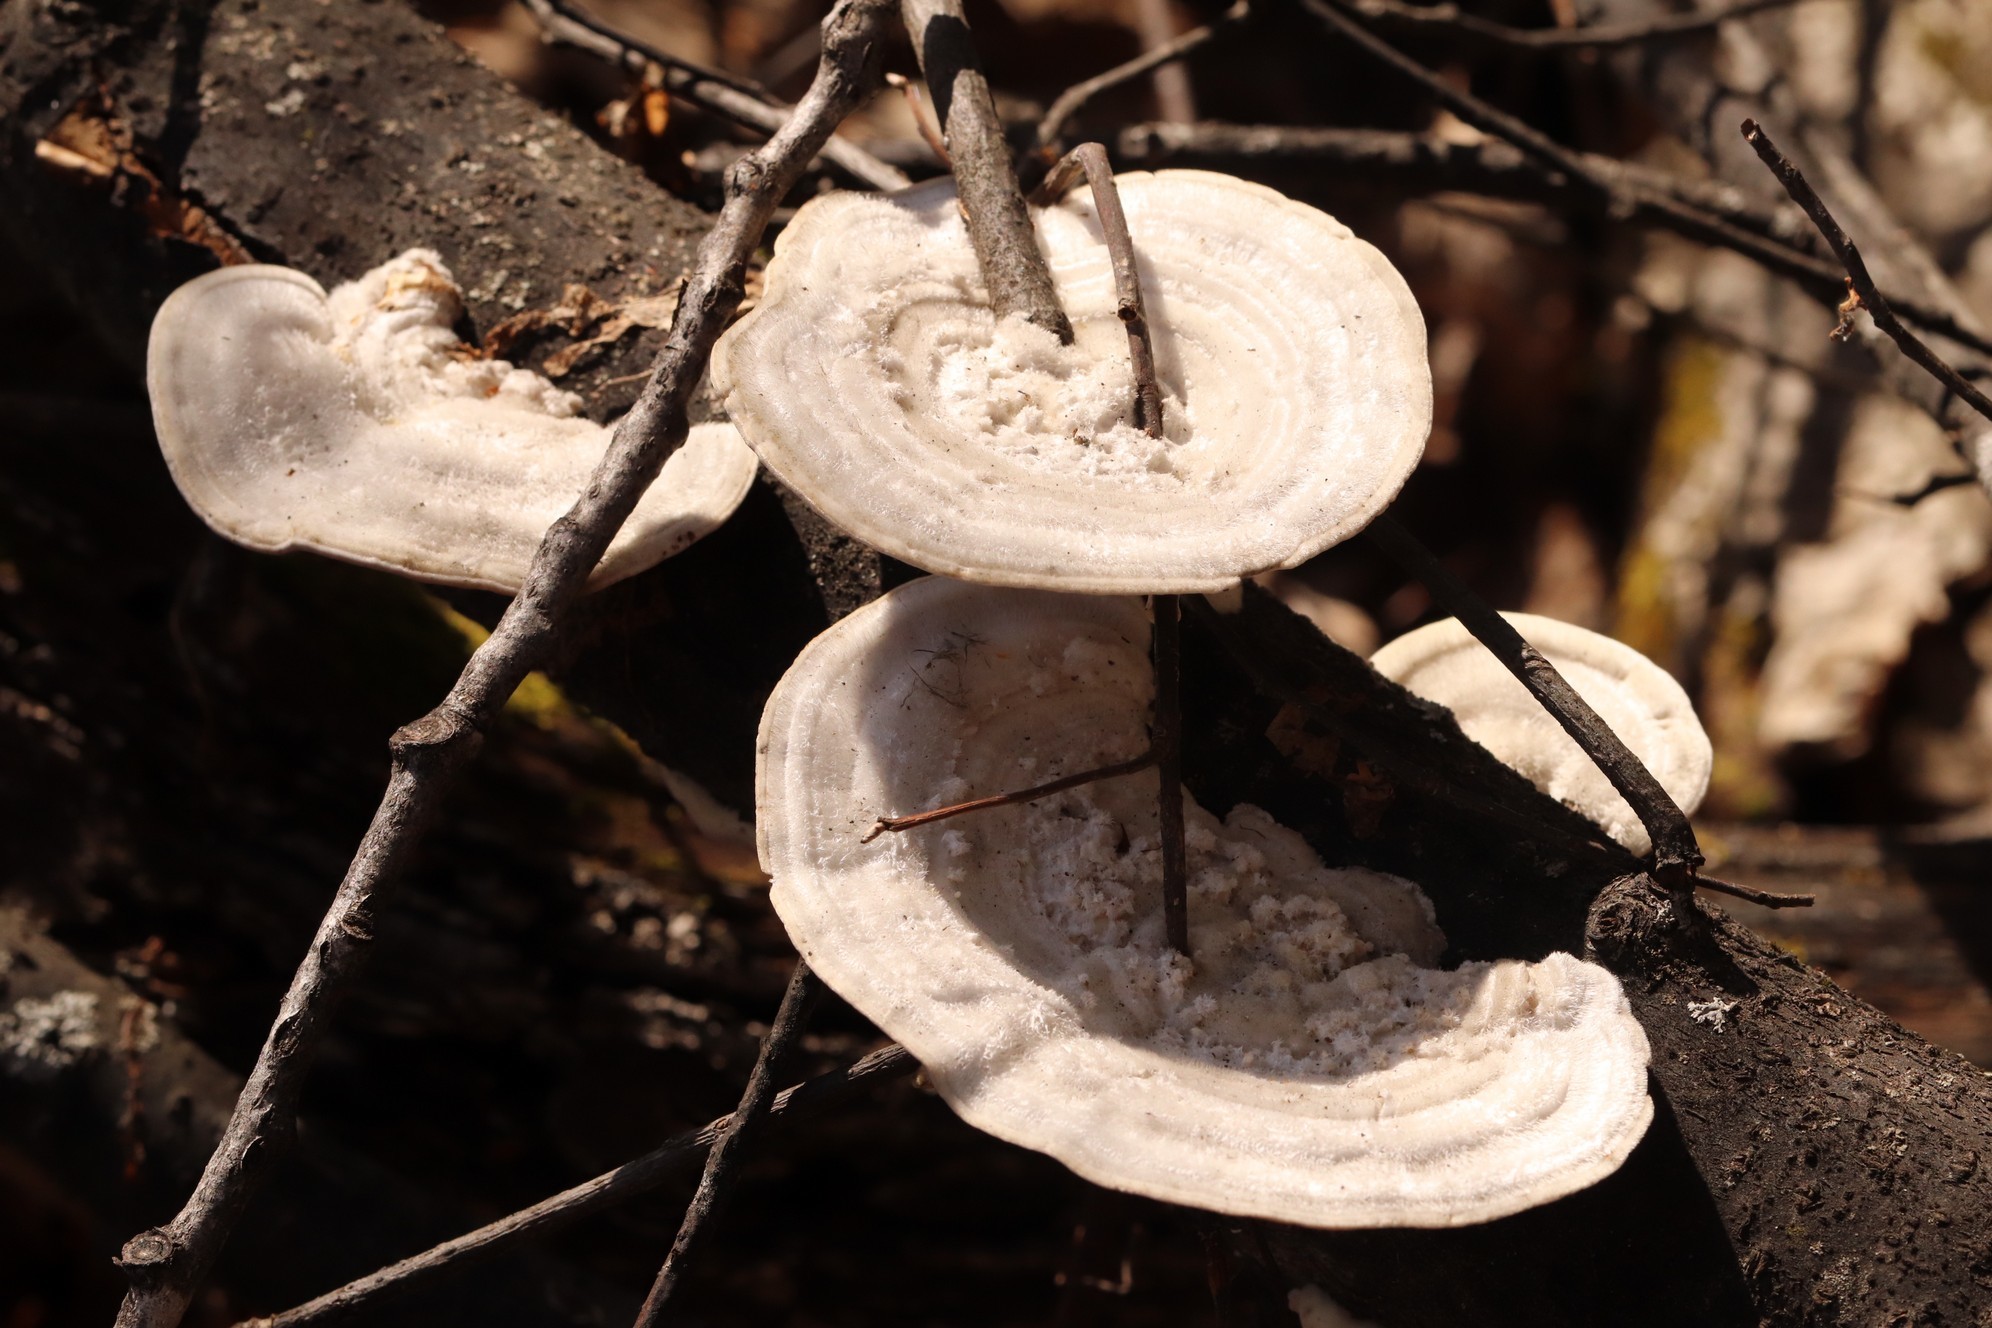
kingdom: Fungi
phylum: Basidiomycota
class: Agaricomycetes
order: Polyporales
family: Polyporaceae
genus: Trametes
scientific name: Trametes hirsuta
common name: Hairy bracket
